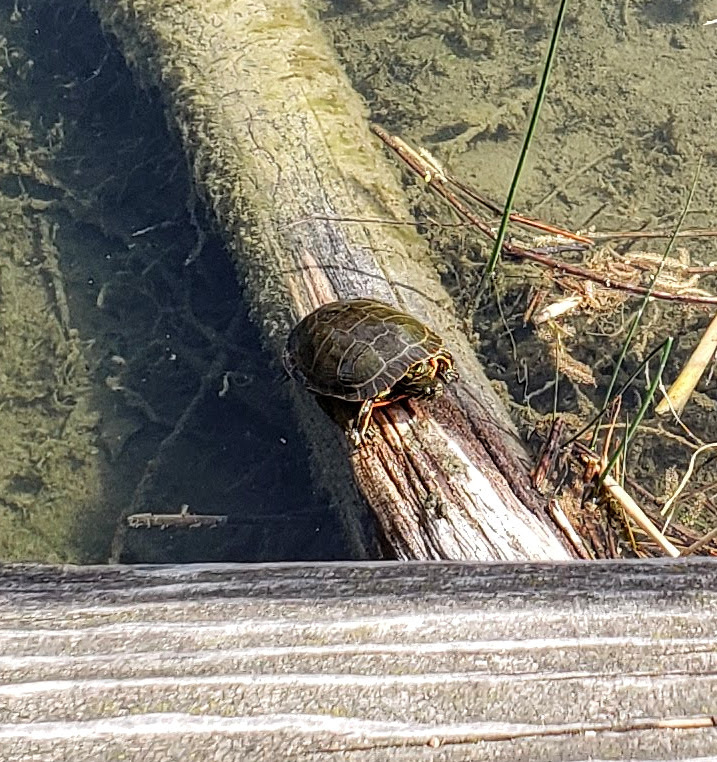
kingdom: Animalia
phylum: Chordata
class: Testudines
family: Emydidae
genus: Chrysemys
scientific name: Chrysemys picta
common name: Painted turtle
